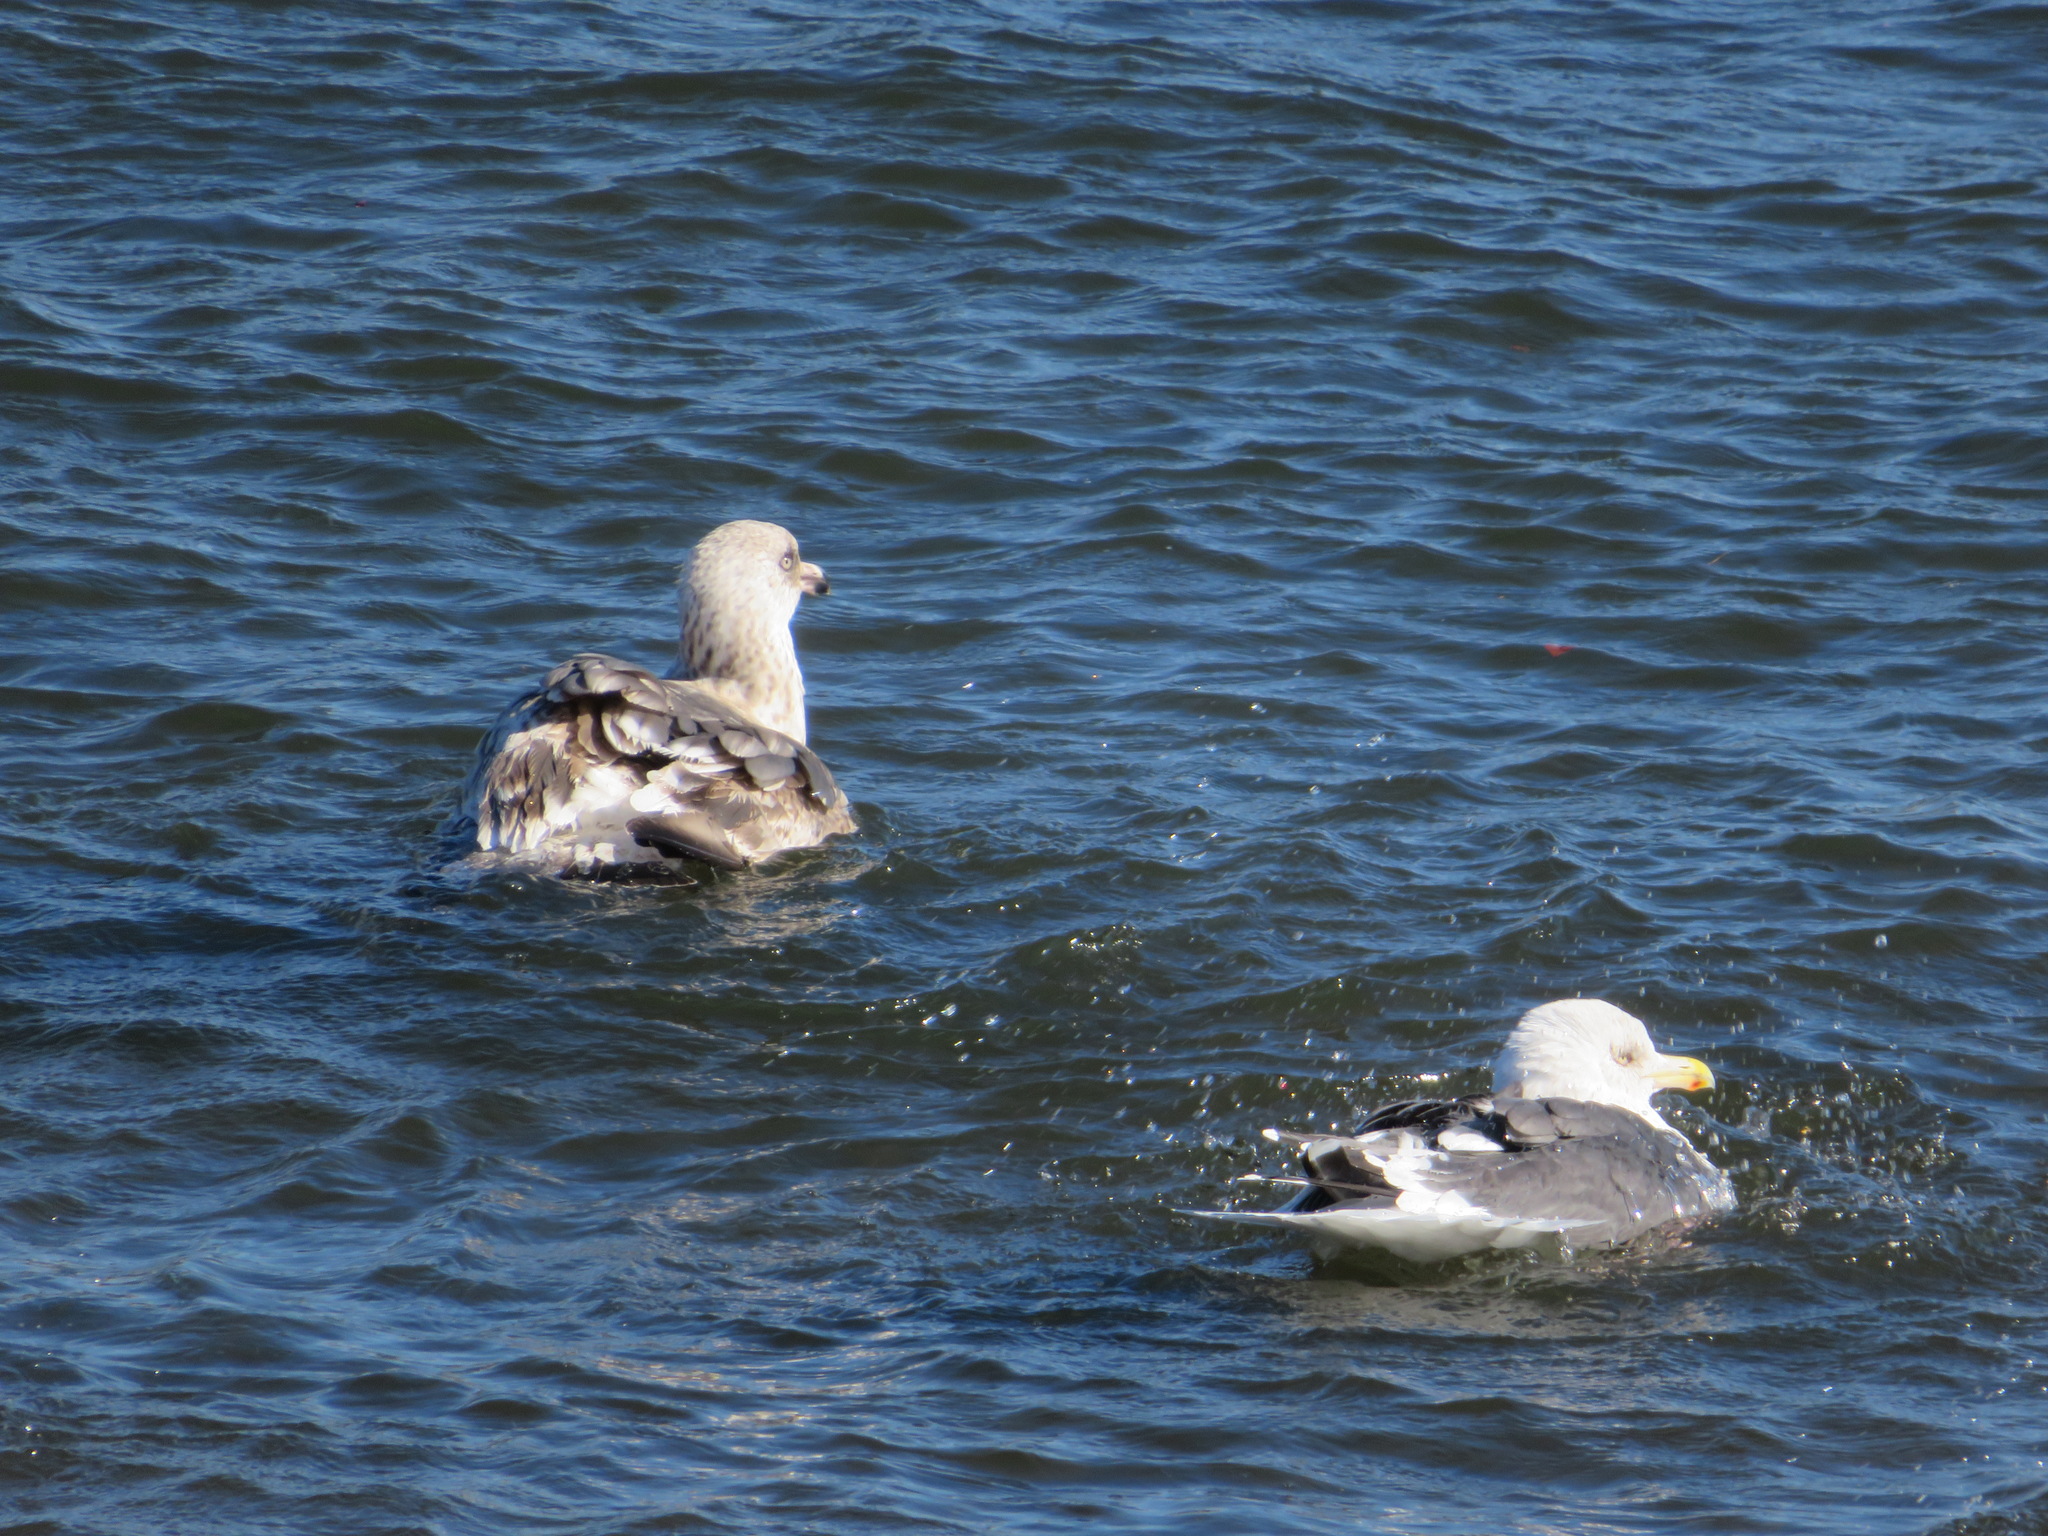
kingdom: Animalia
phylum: Chordata
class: Aves
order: Charadriiformes
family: Laridae
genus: Larus
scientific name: Larus schistisagus
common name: Slaty-backed gull
